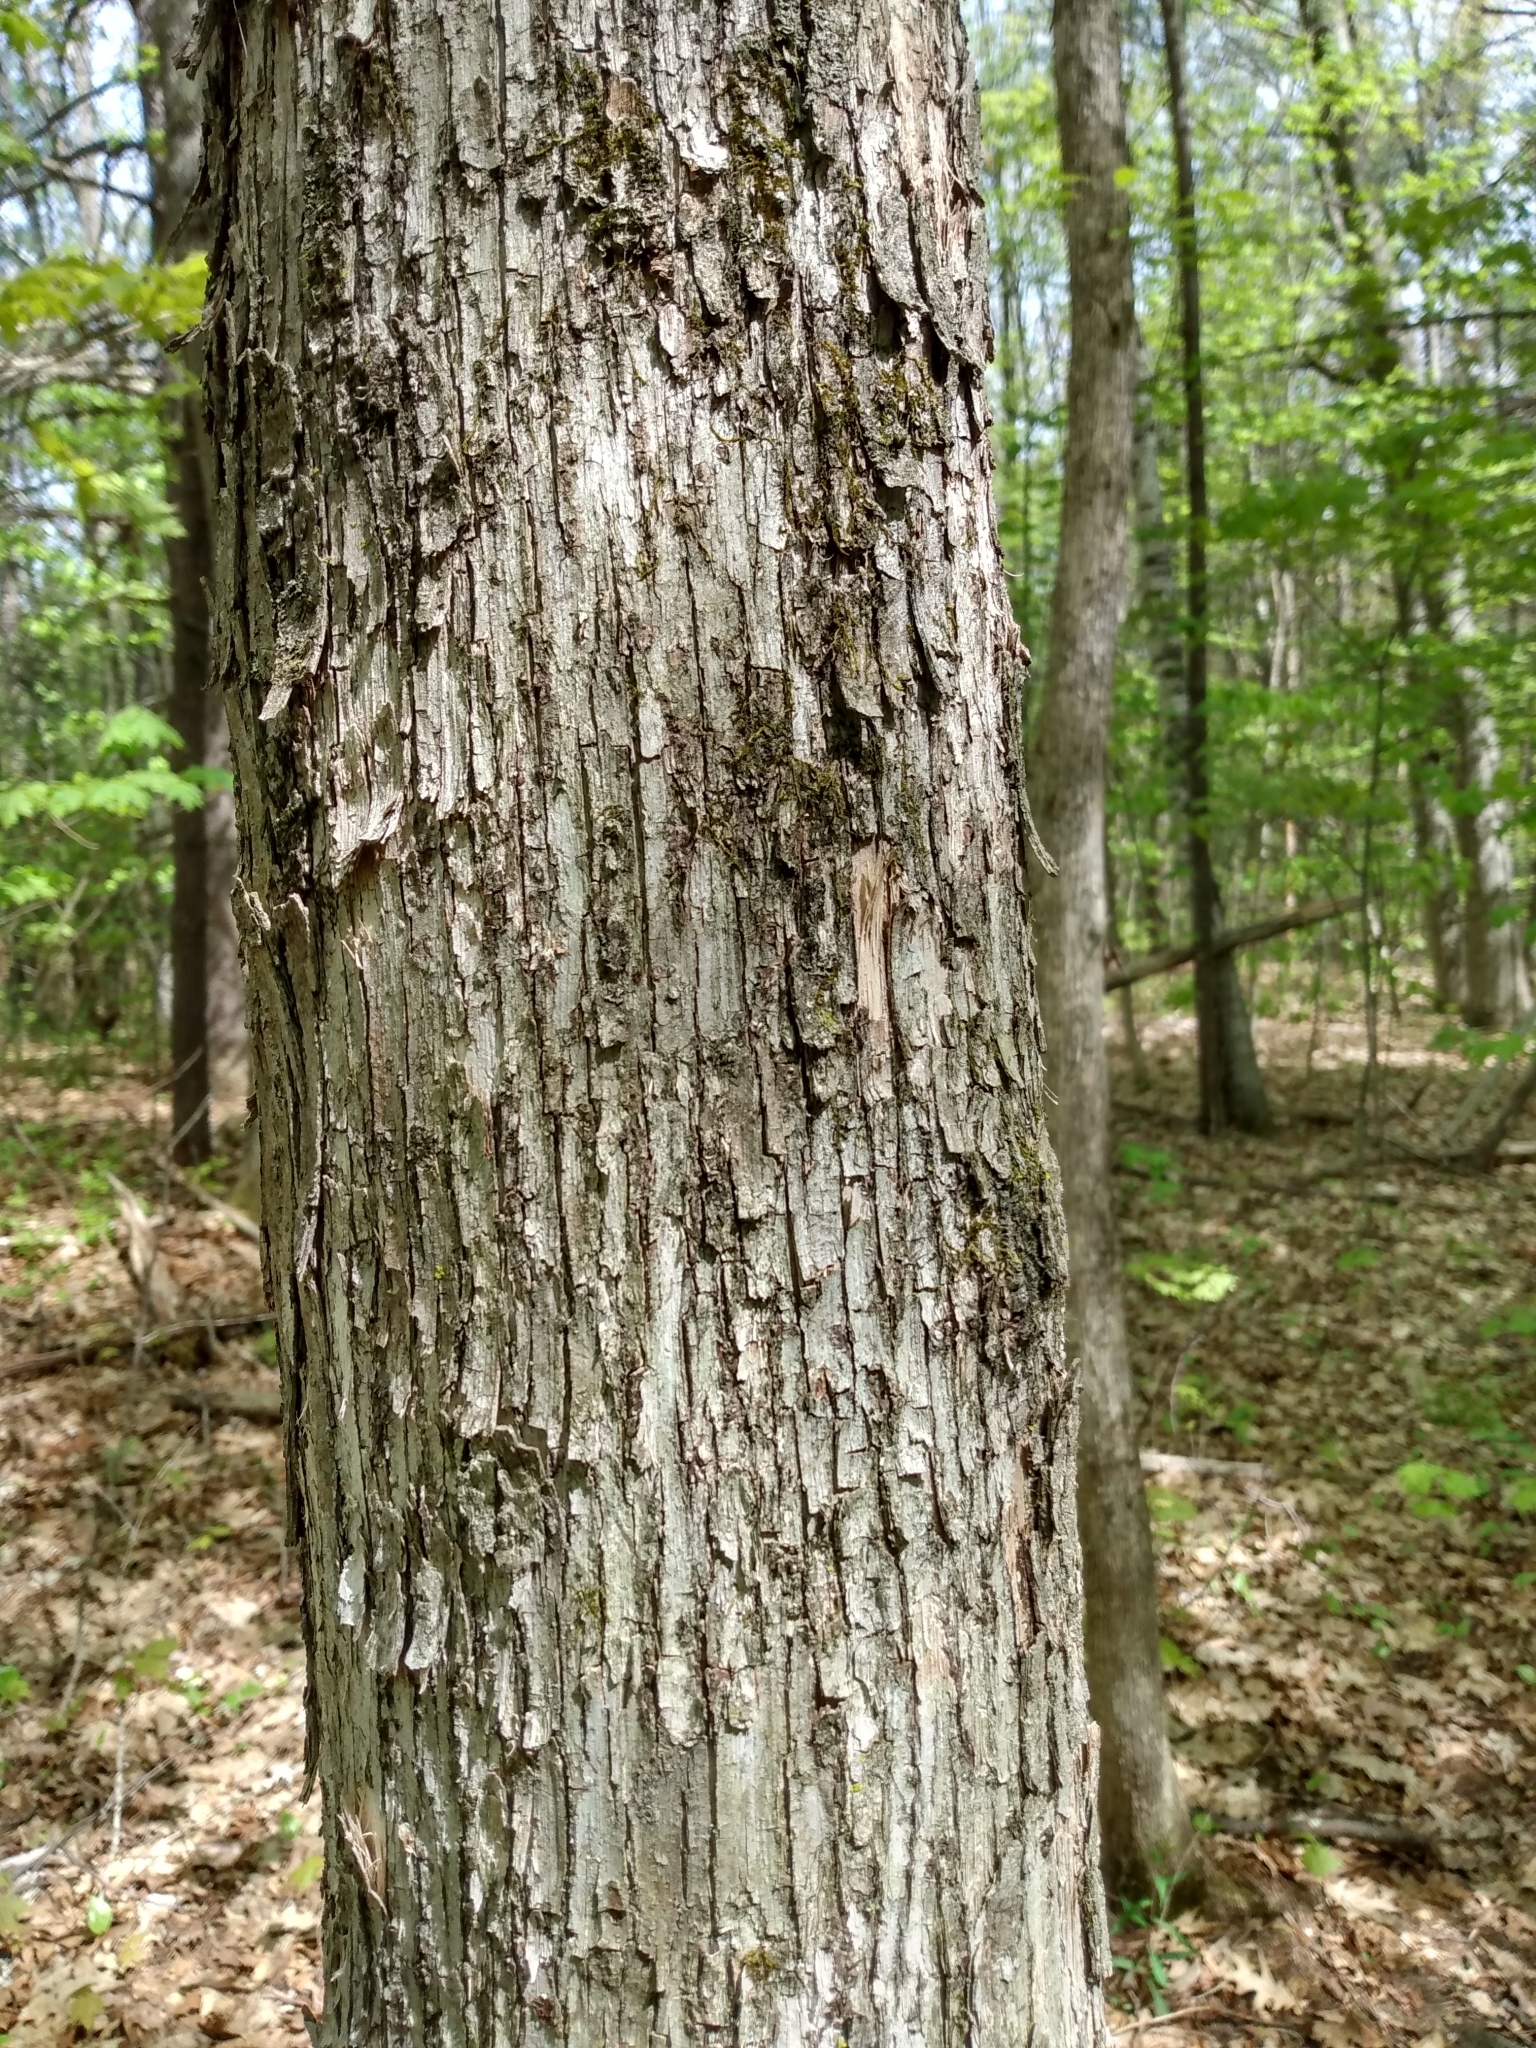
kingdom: Plantae
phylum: Tracheophyta
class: Magnoliopsida
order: Fagales
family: Betulaceae
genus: Ostrya
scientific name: Ostrya virginiana
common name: Ironwood
